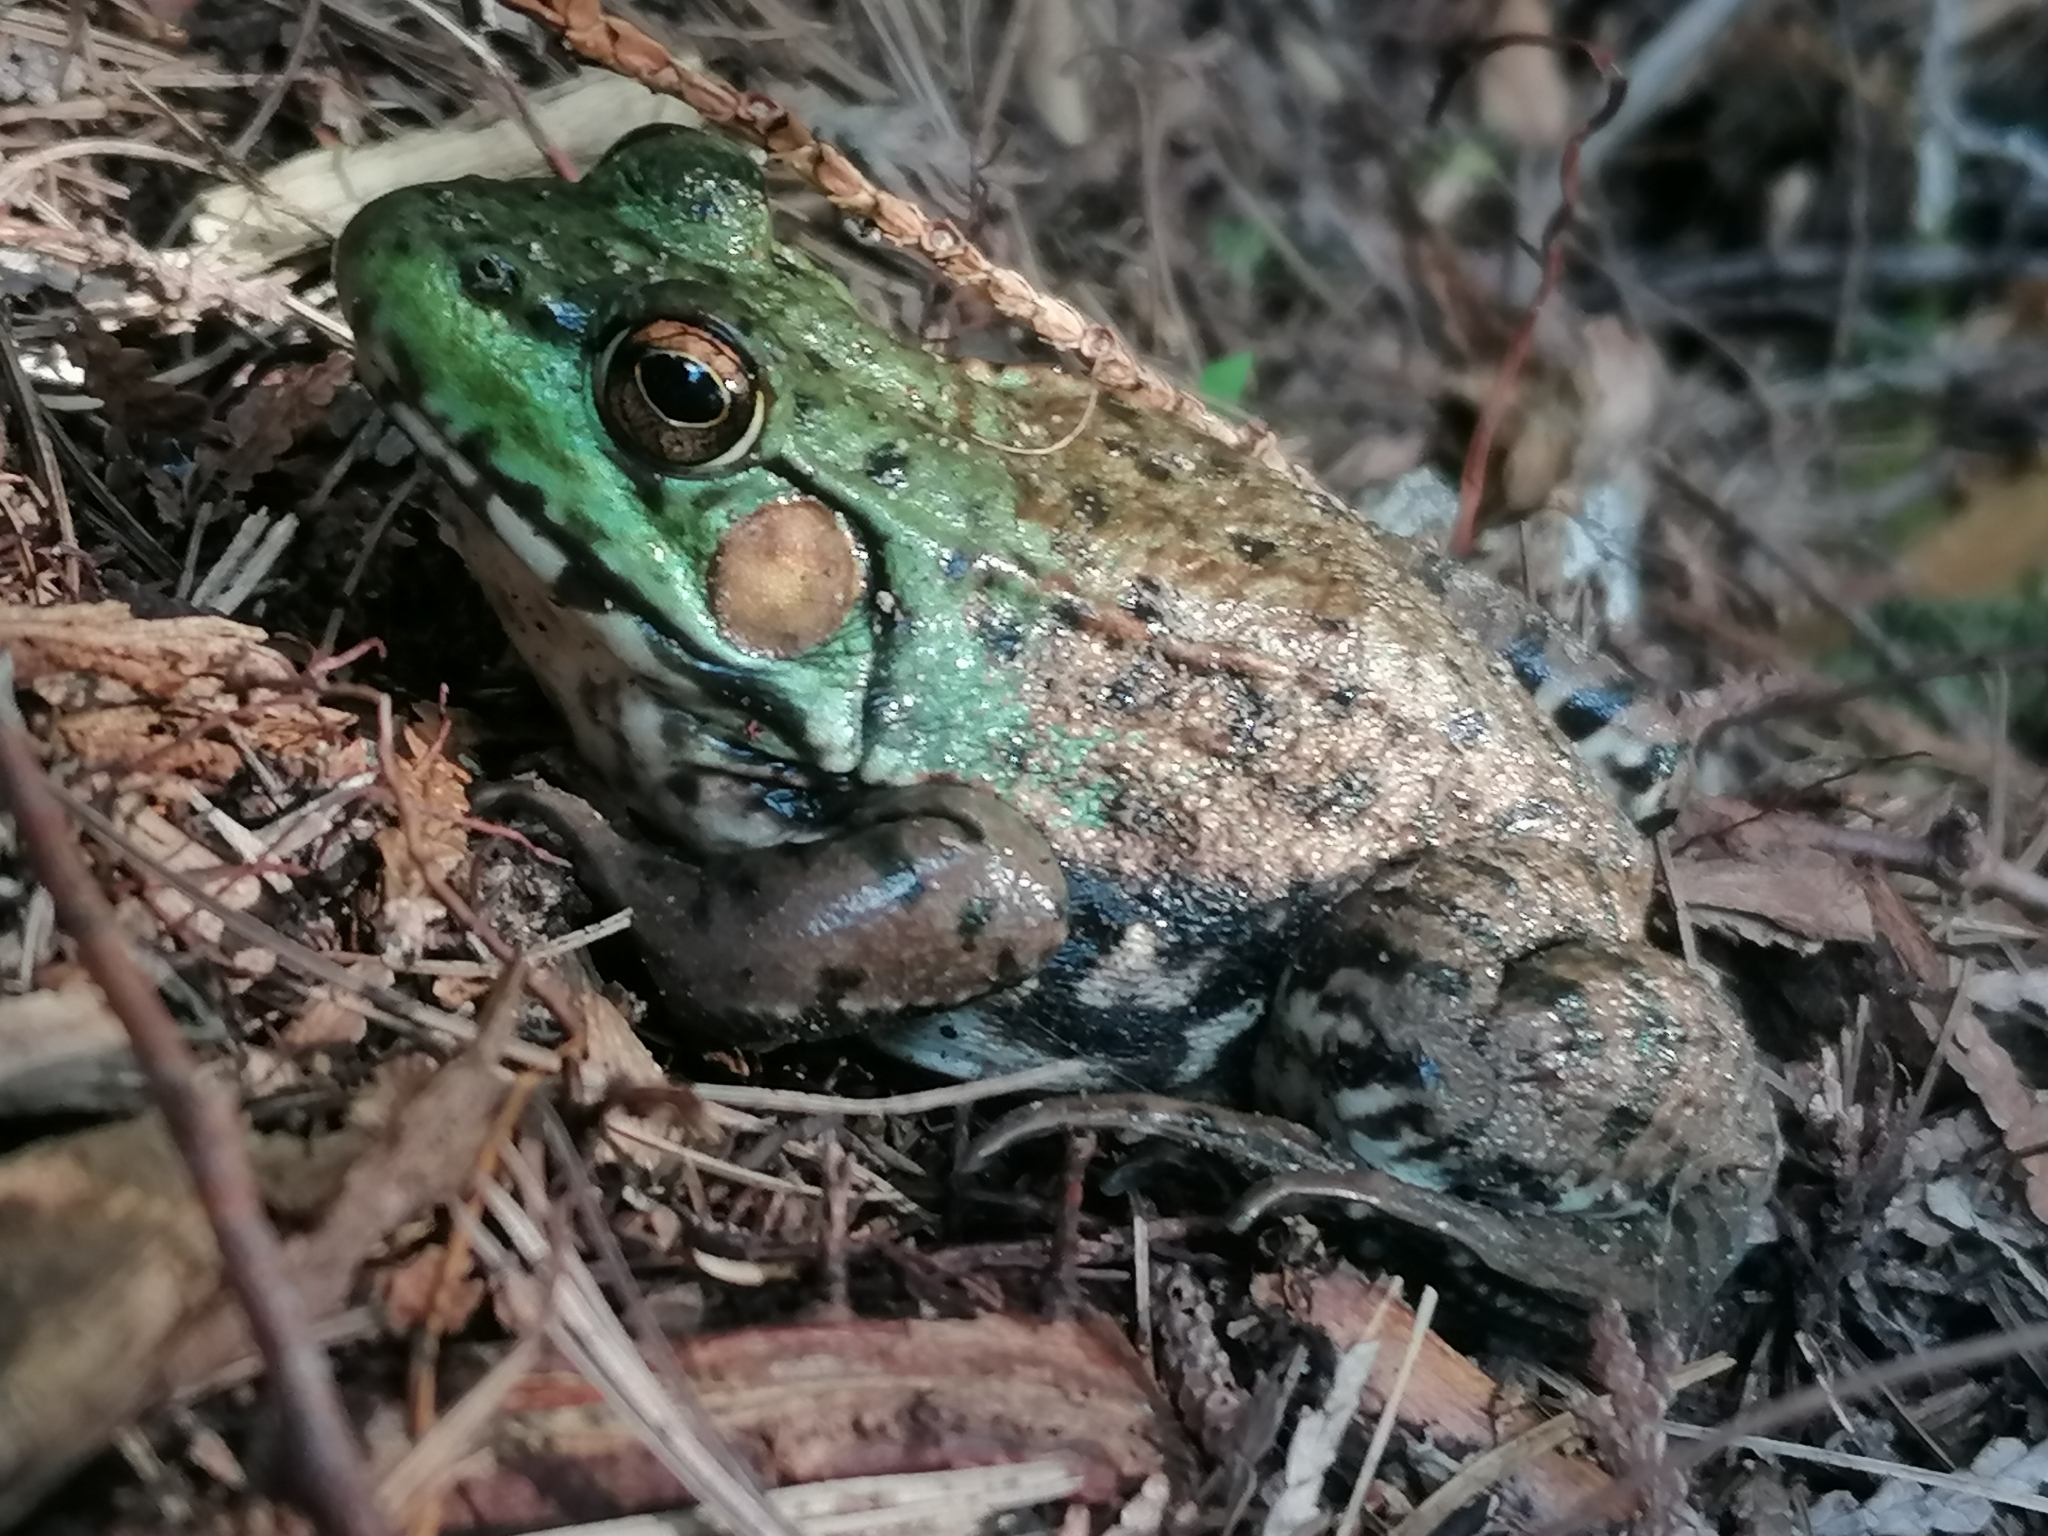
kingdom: Animalia
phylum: Chordata
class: Amphibia
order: Anura
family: Ranidae
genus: Lithobates
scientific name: Lithobates clamitans
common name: Green frog
